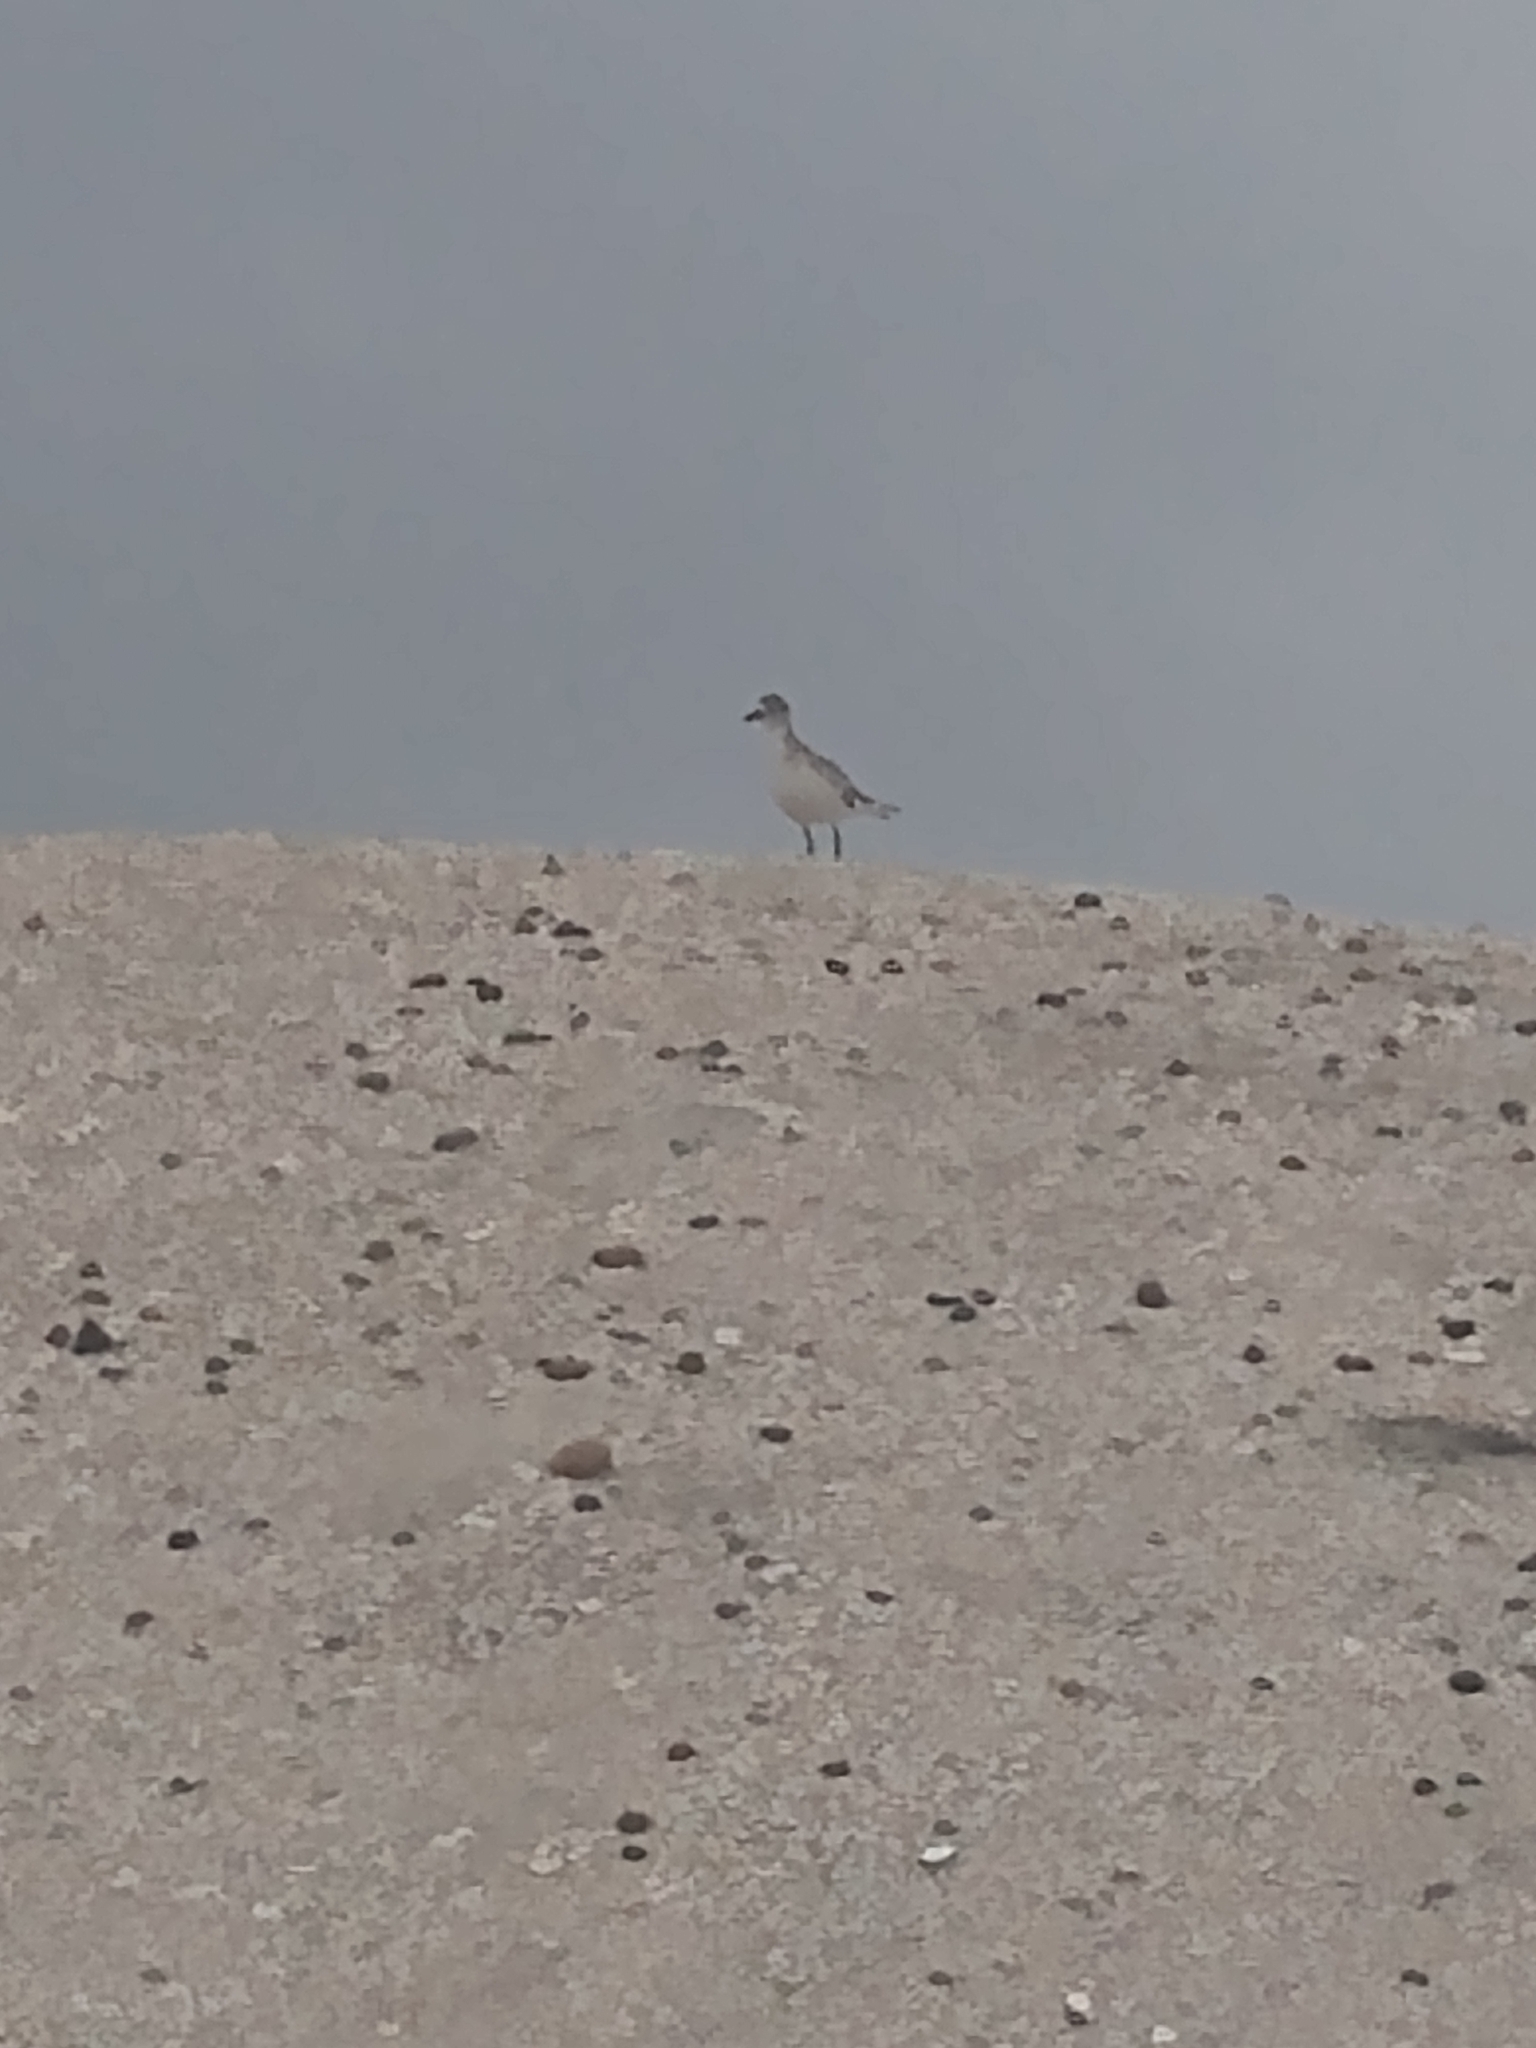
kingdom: Animalia
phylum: Chordata
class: Aves
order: Charadriiformes
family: Charadriidae
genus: Pluvialis
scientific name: Pluvialis squatarola
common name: Grey plover
